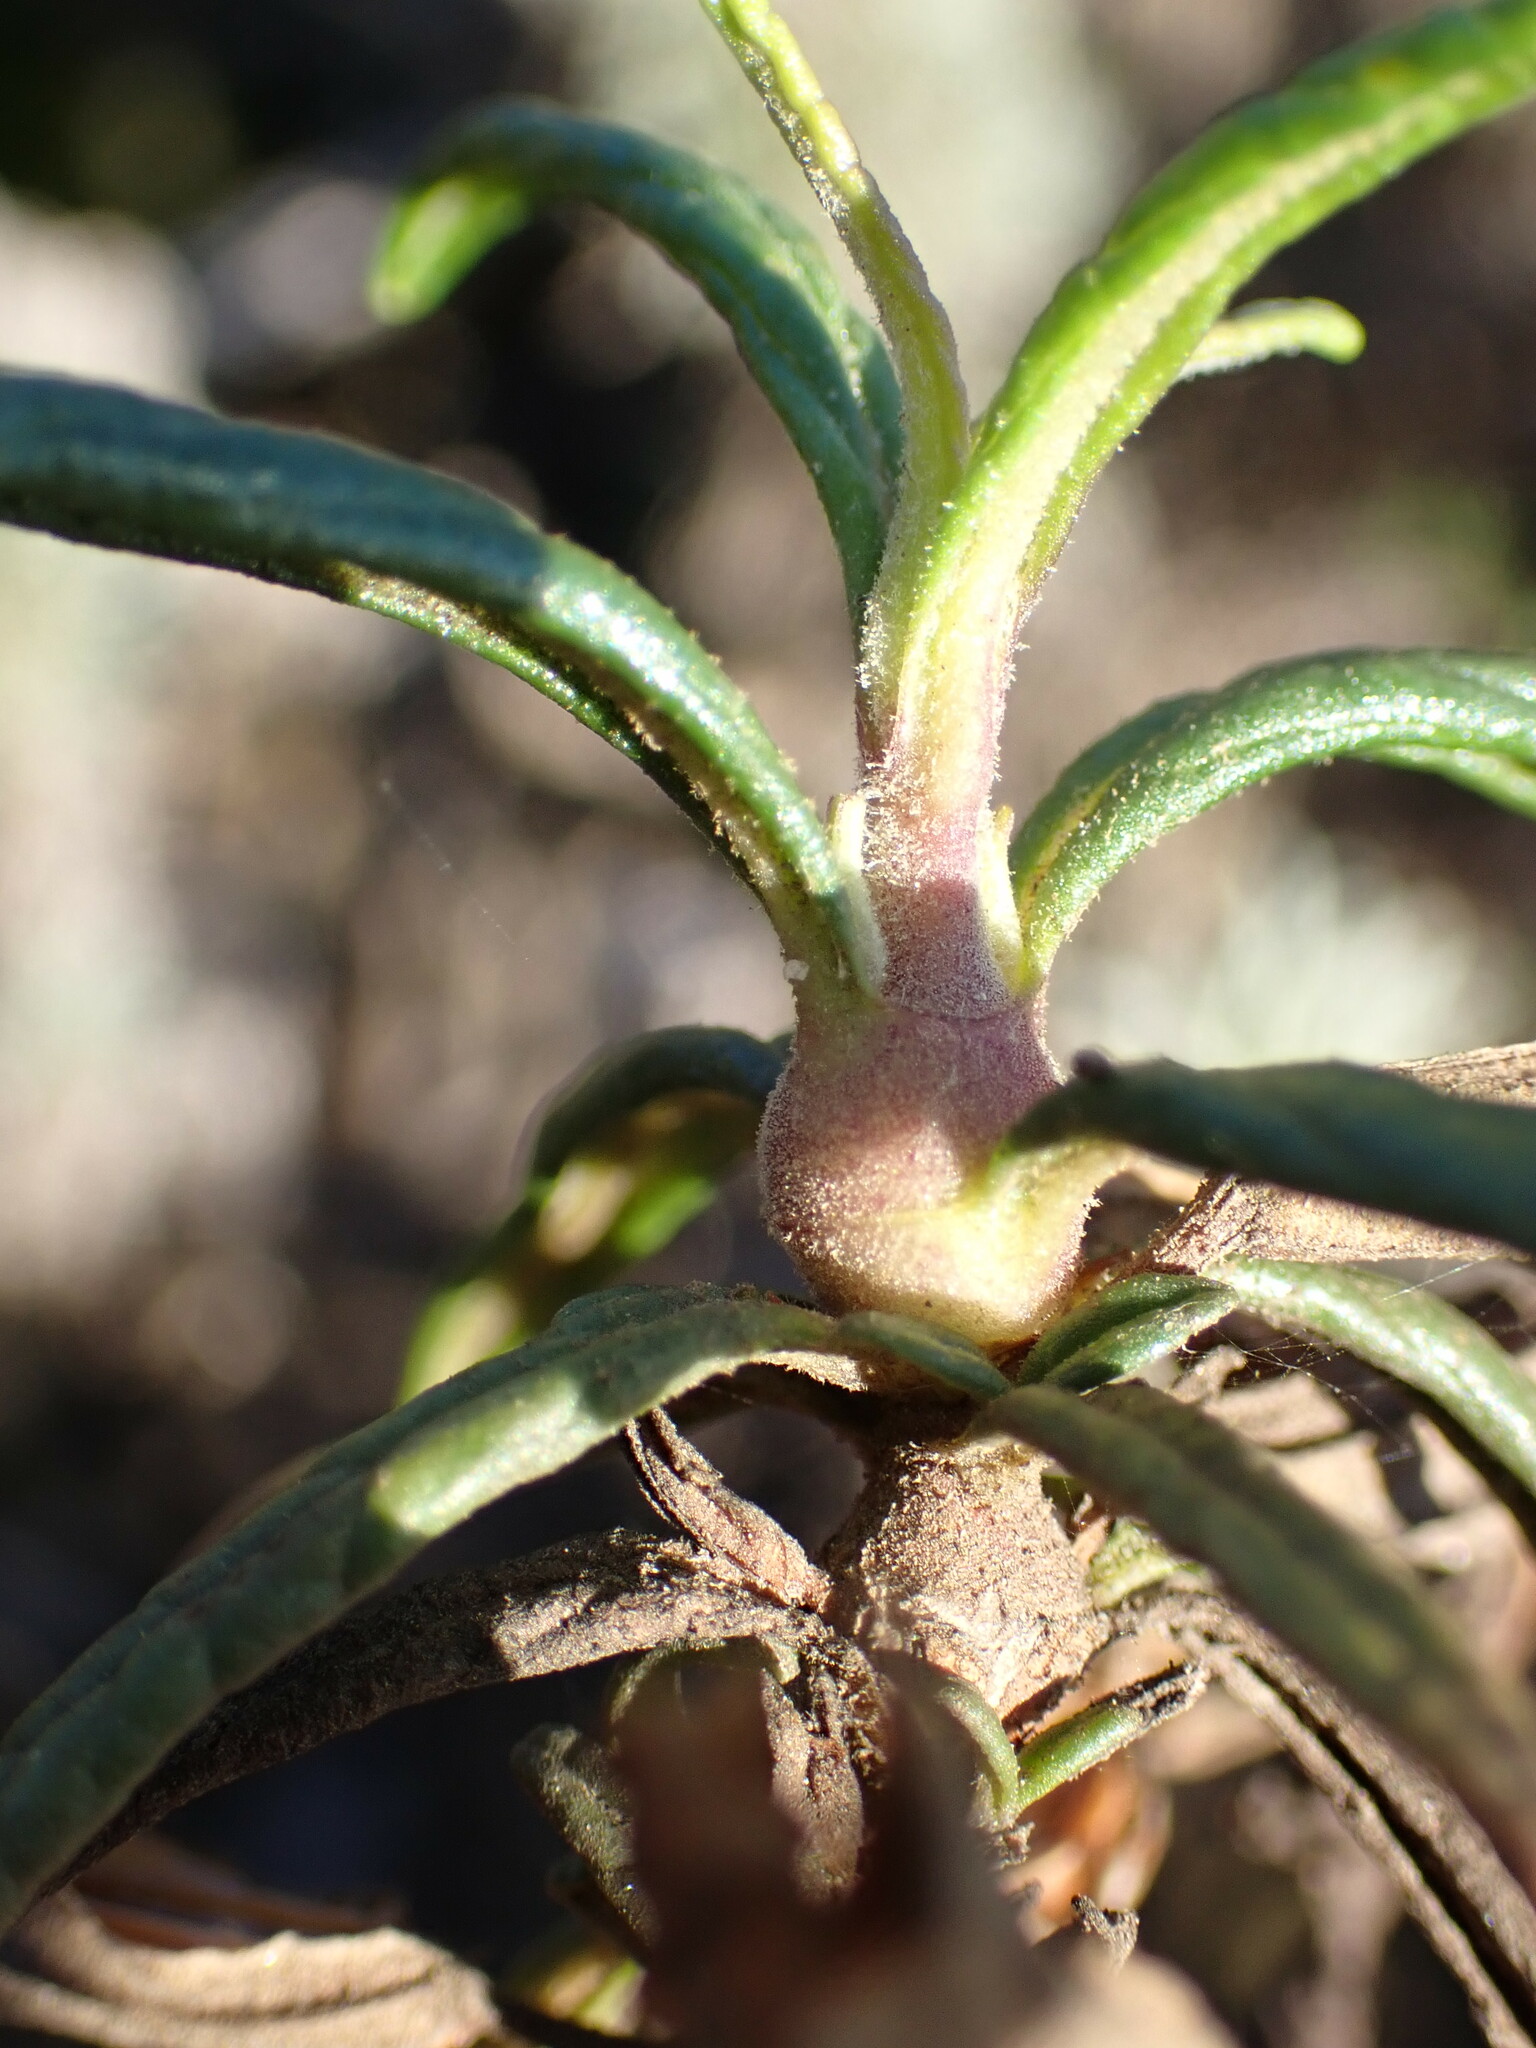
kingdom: Animalia
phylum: Arthropoda
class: Insecta
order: Diptera
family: Cecidomyiidae
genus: Neolasioptera
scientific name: Neolasioptera mimuli
